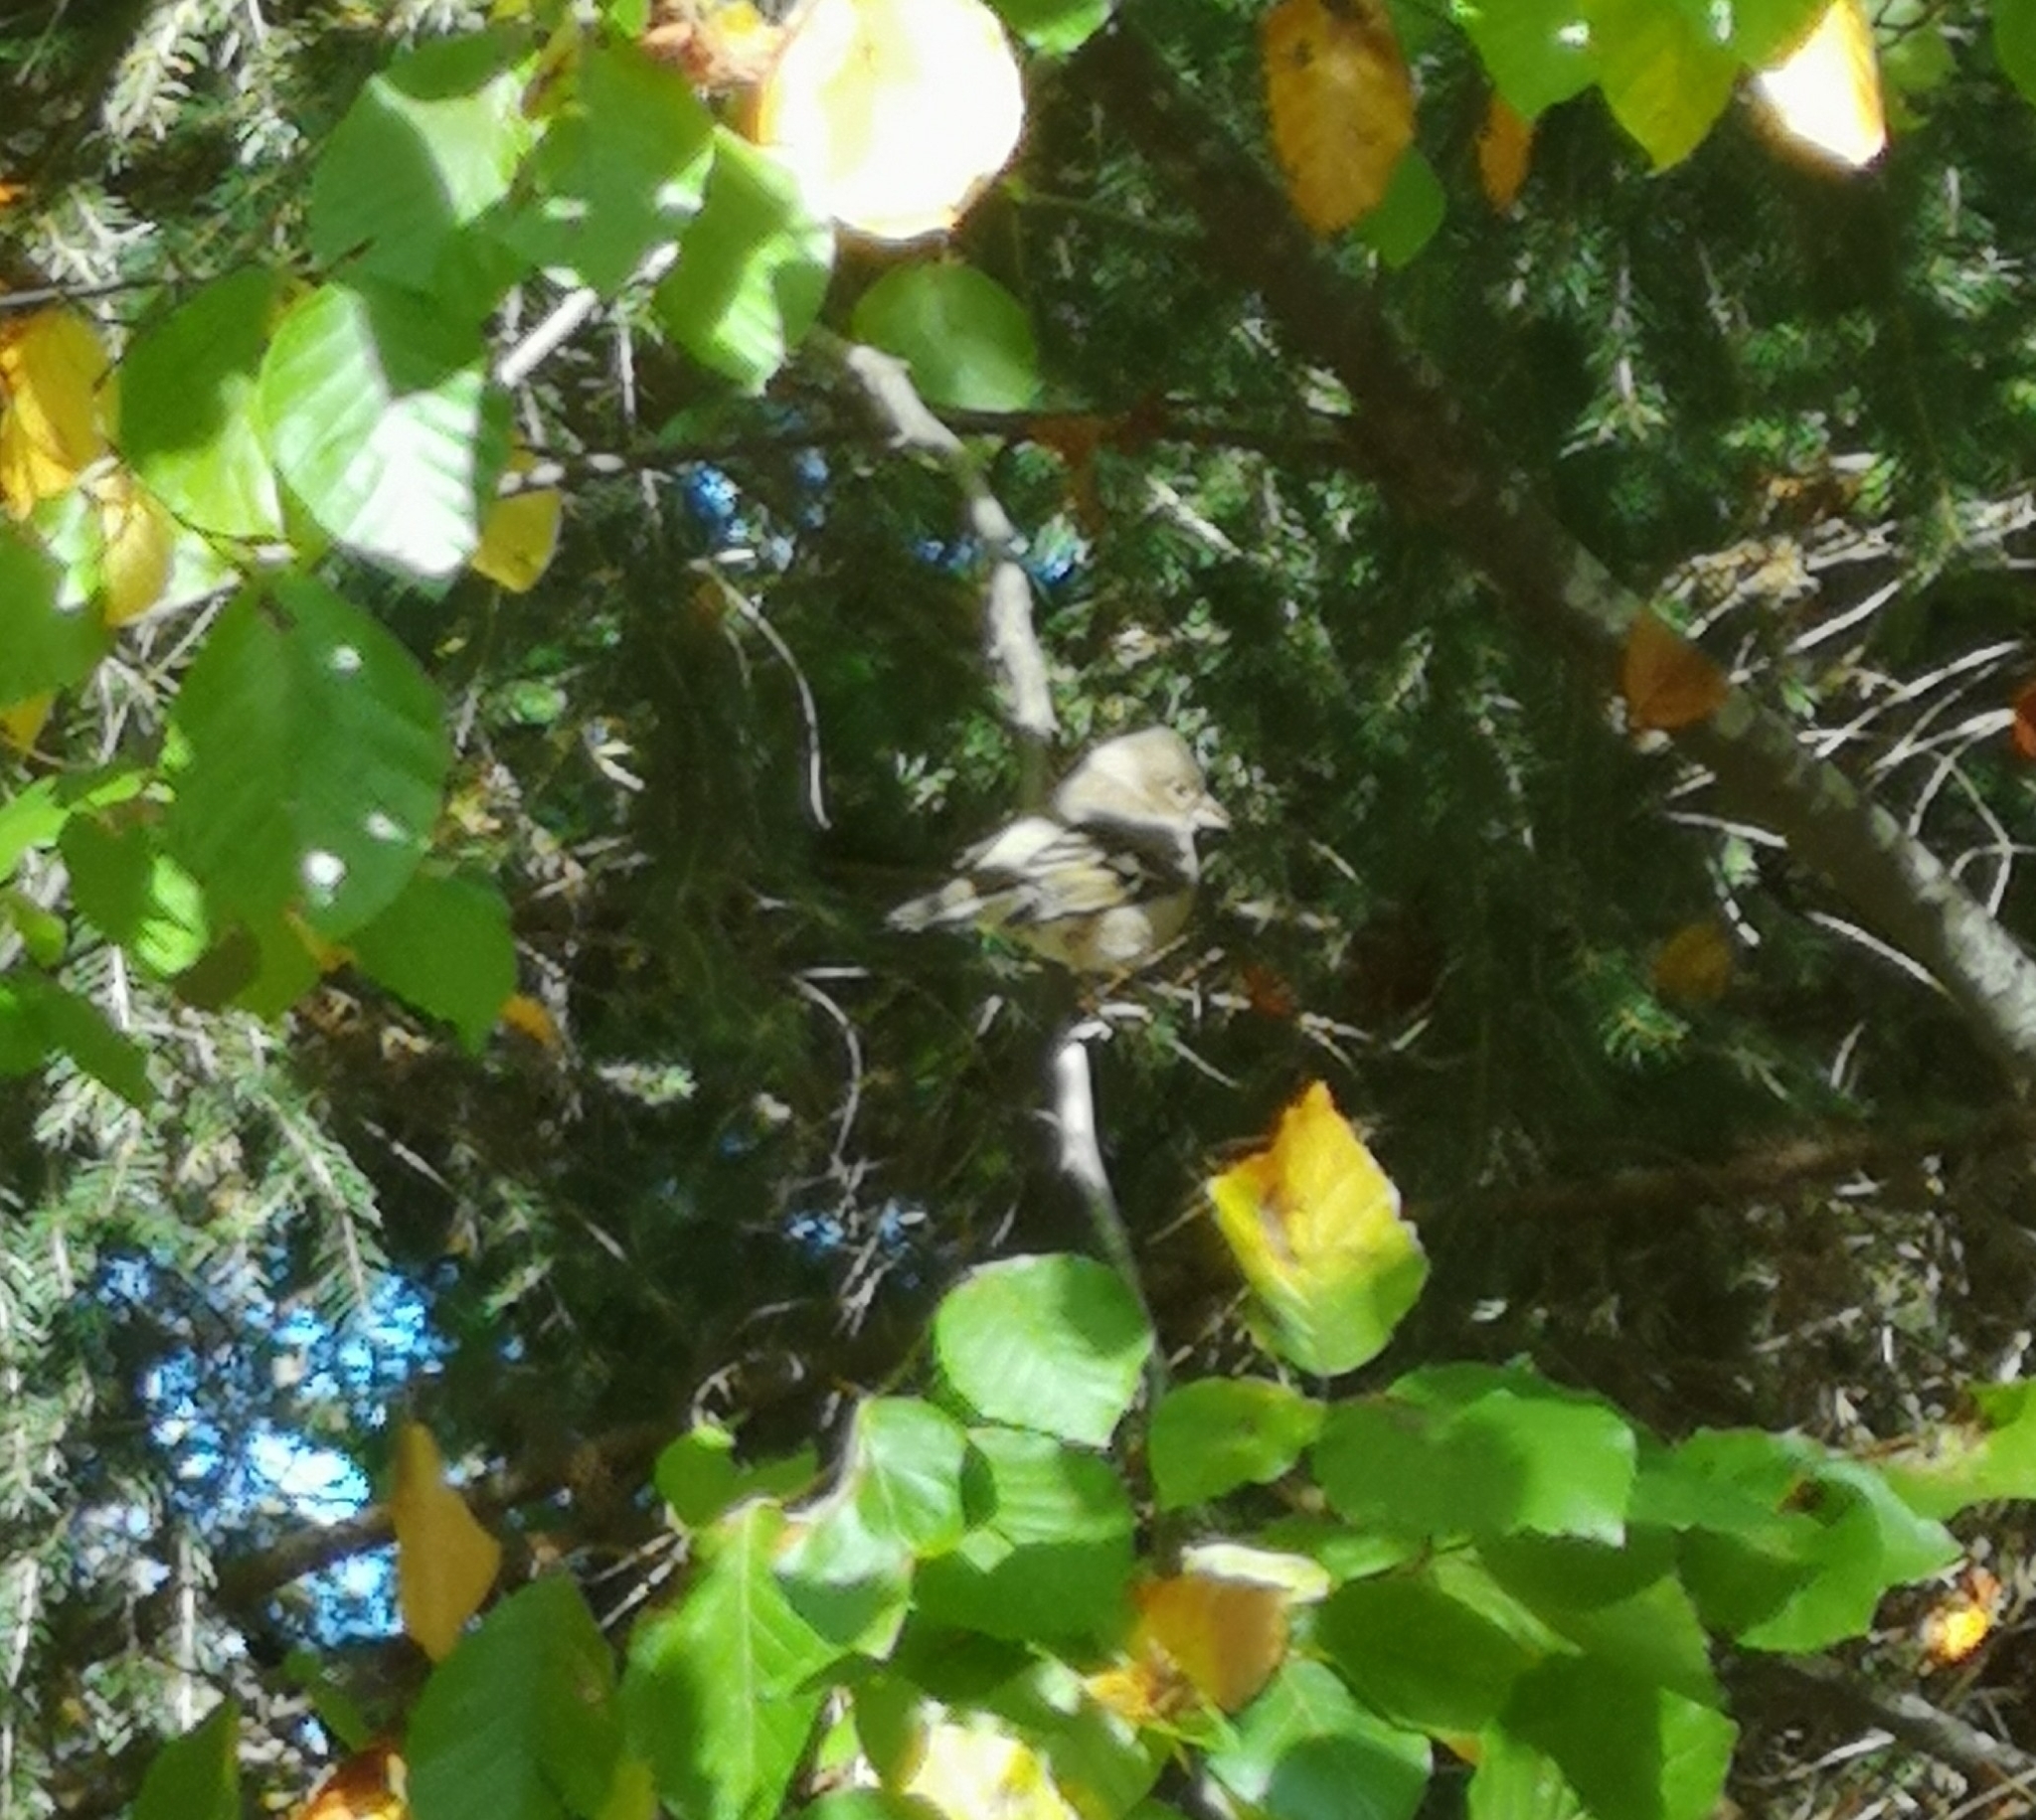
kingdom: Animalia
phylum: Chordata
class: Aves
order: Passeriformes
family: Fringillidae
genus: Fringilla
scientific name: Fringilla coelebs
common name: Common chaffinch
